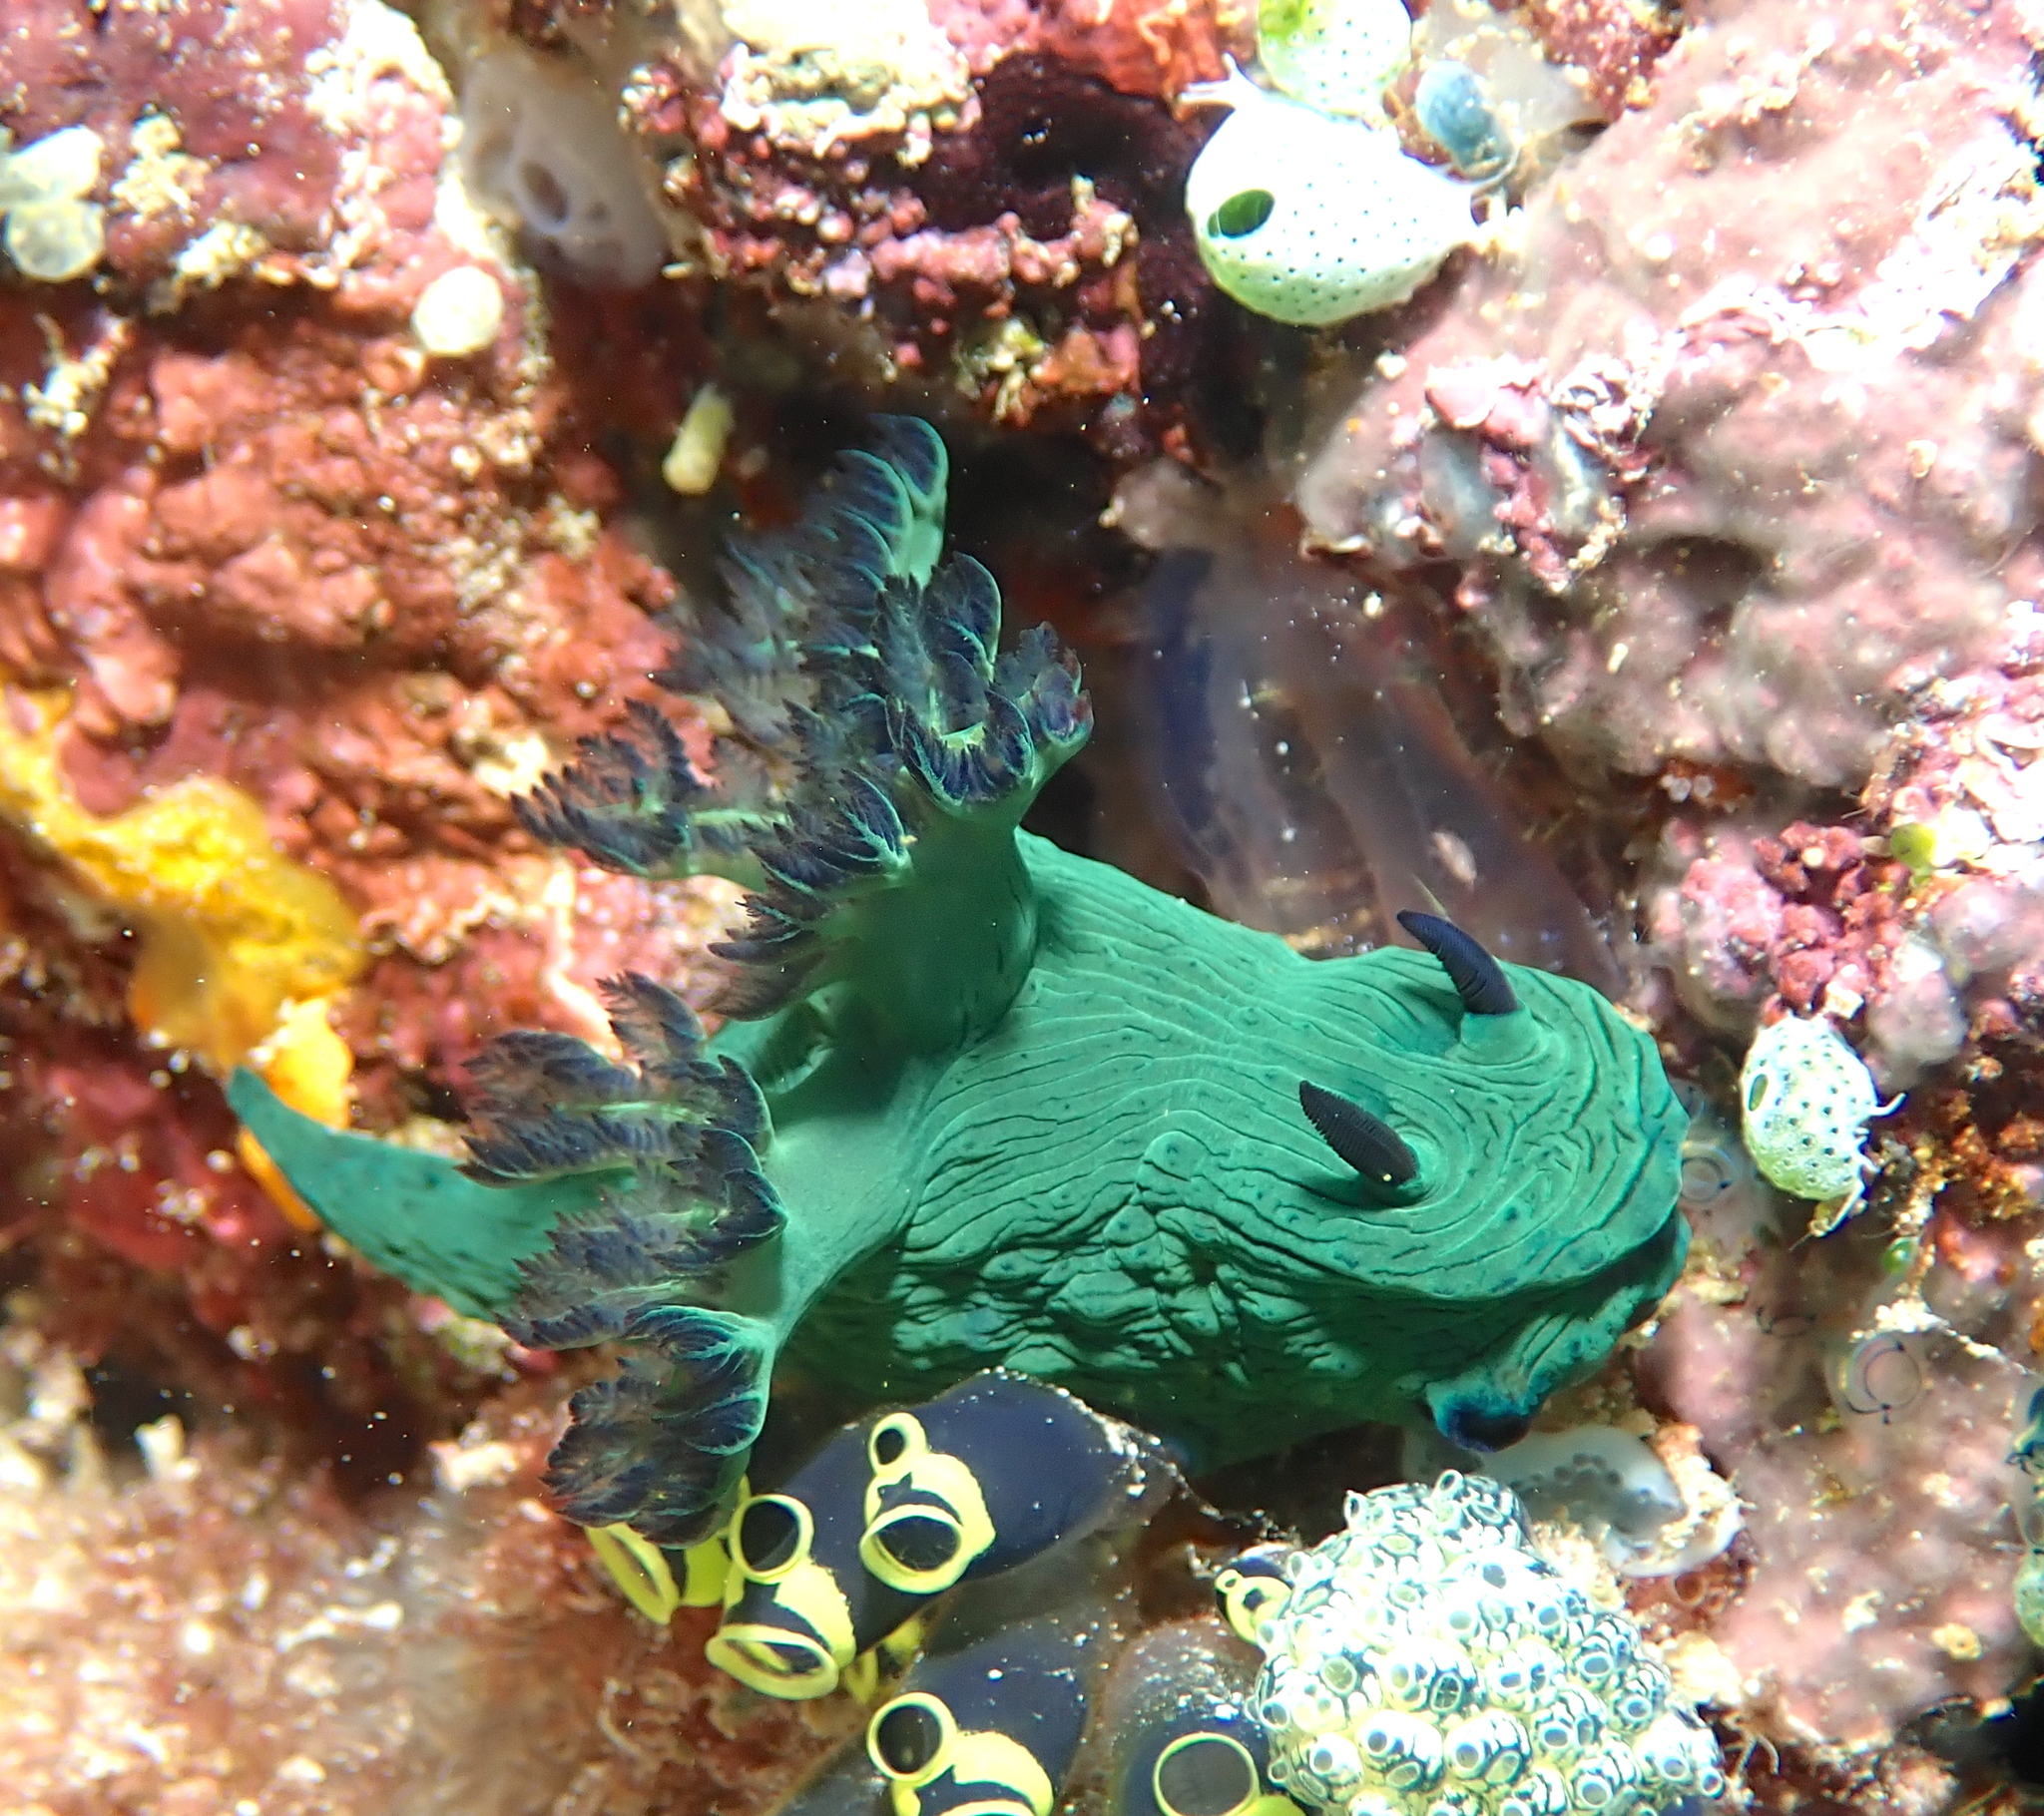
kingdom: Animalia
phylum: Mollusca
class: Gastropoda
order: Nudibranchia
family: Polyceridae
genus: Nembrotha
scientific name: Nembrotha milleri
